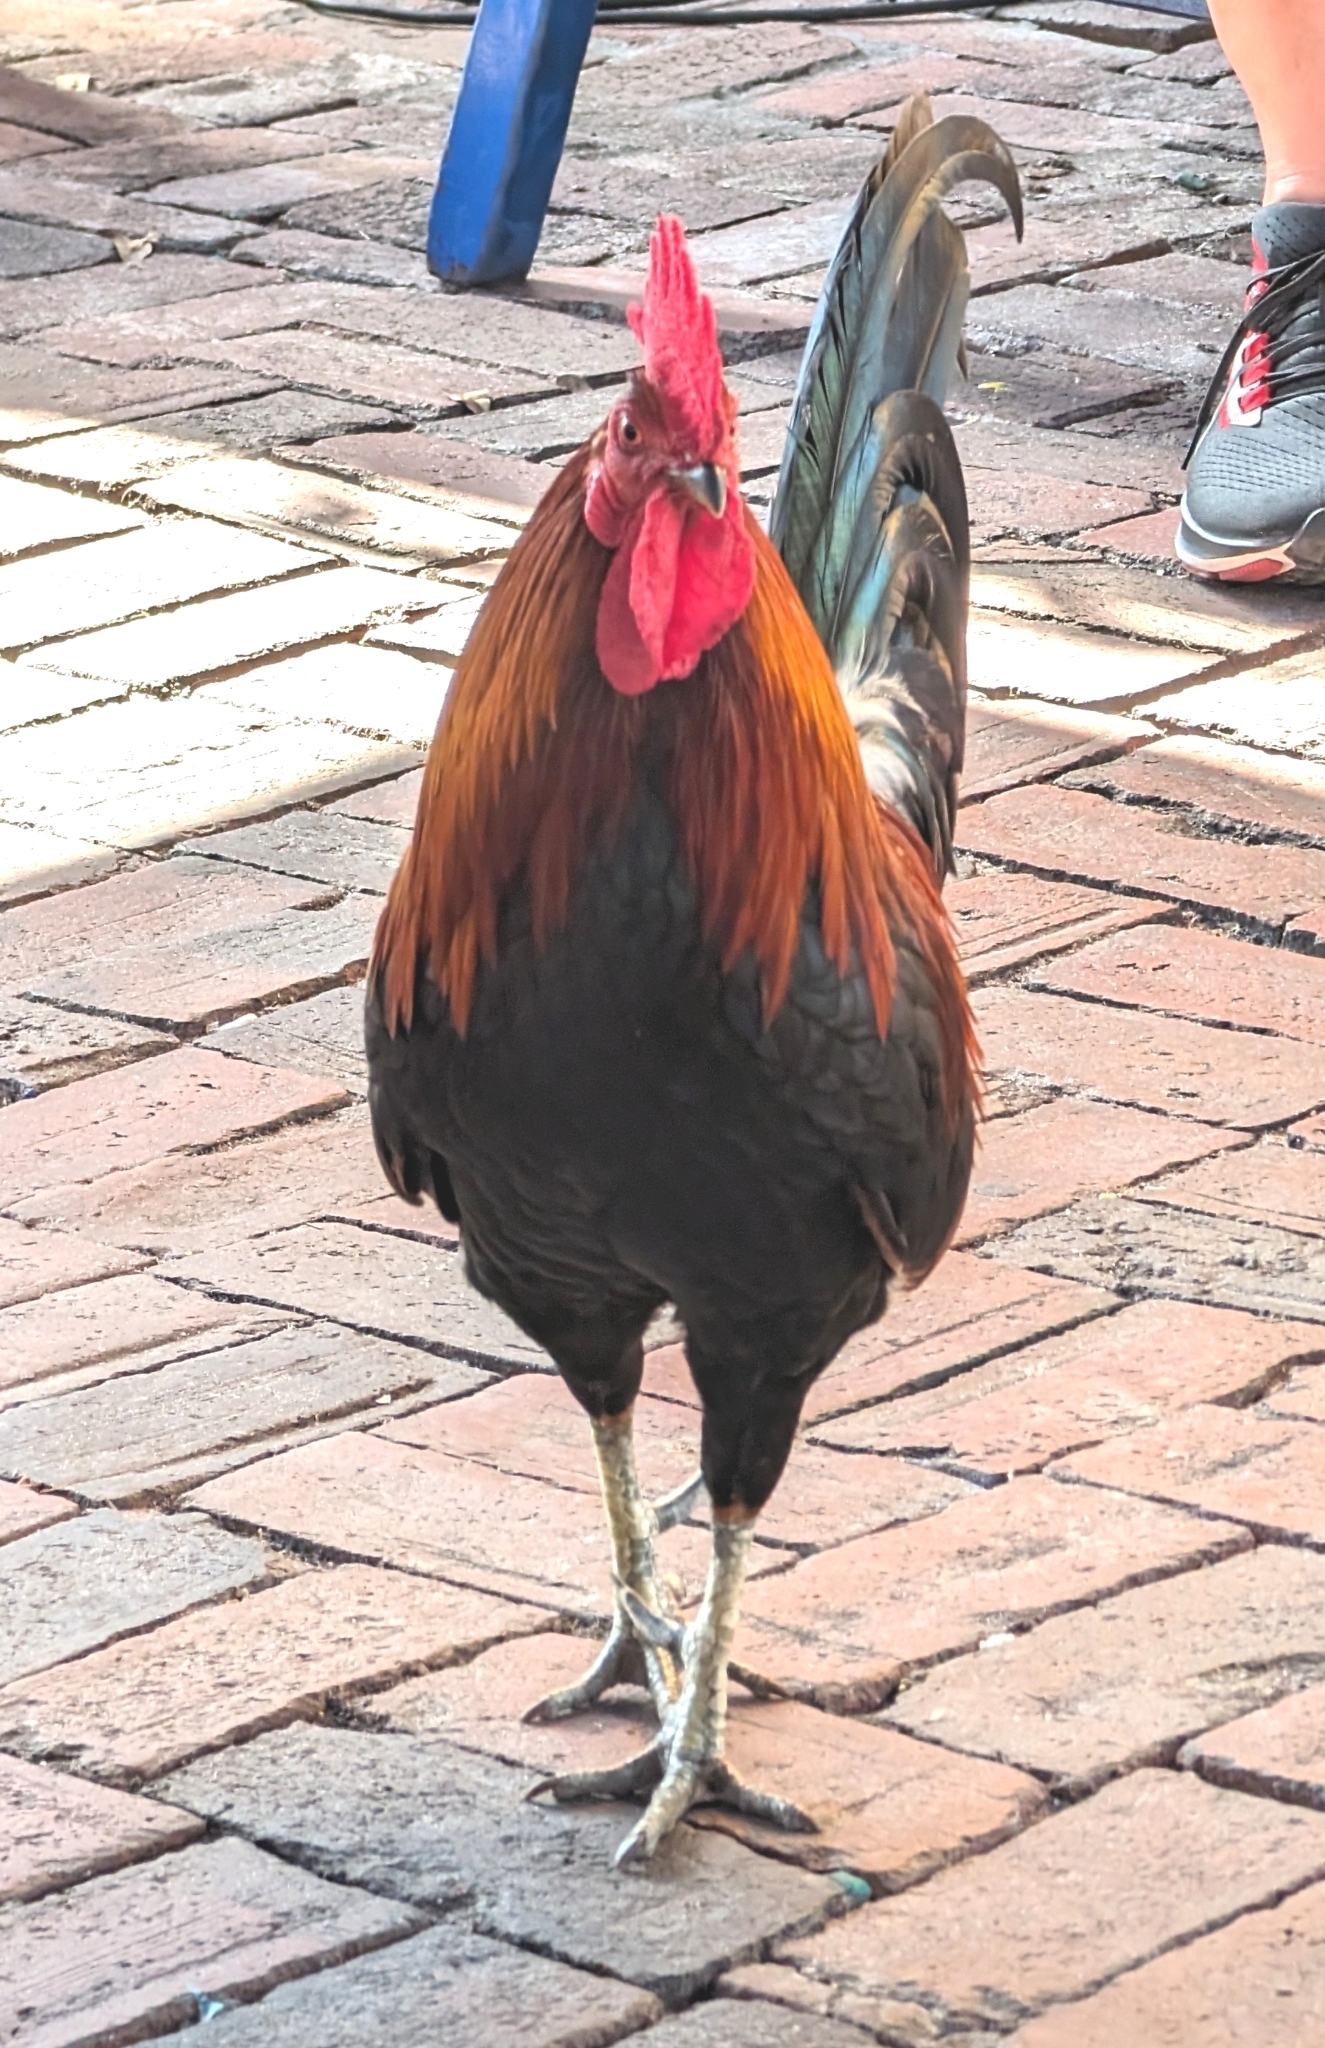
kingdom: Animalia
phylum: Chordata
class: Aves
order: Galliformes
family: Phasianidae
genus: Gallus
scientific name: Gallus gallus
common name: Red junglefowl
